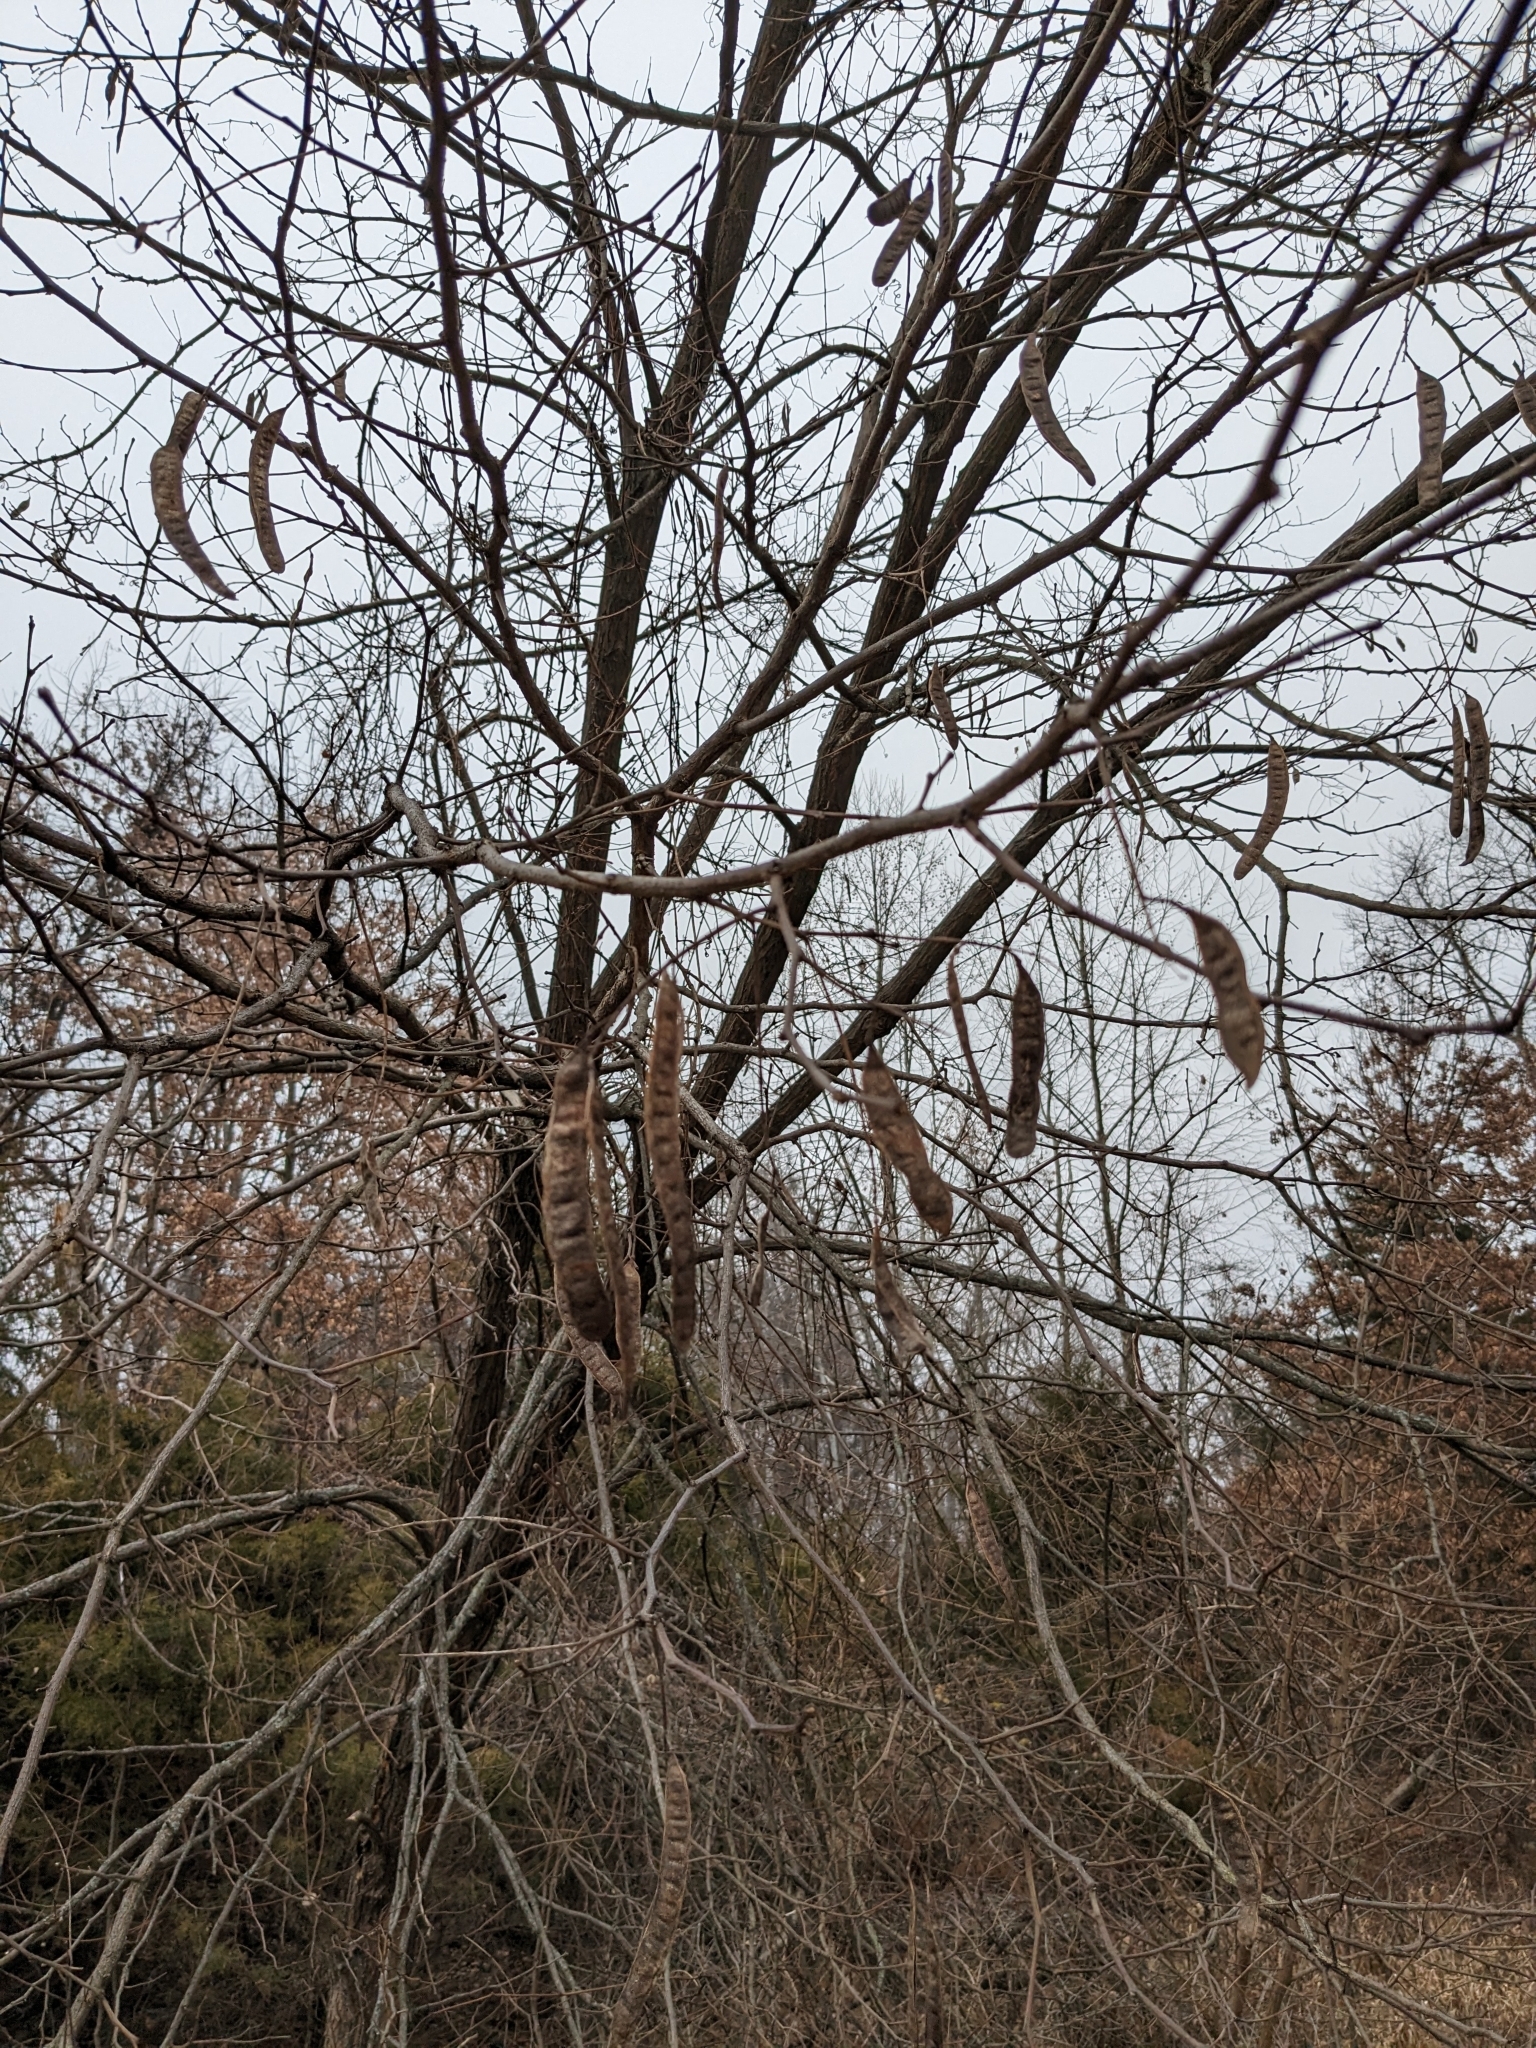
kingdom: Plantae
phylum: Tracheophyta
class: Magnoliopsida
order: Fabales
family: Fabaceae
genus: Robinia
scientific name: Robinia pseudoacacia
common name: Black locust
